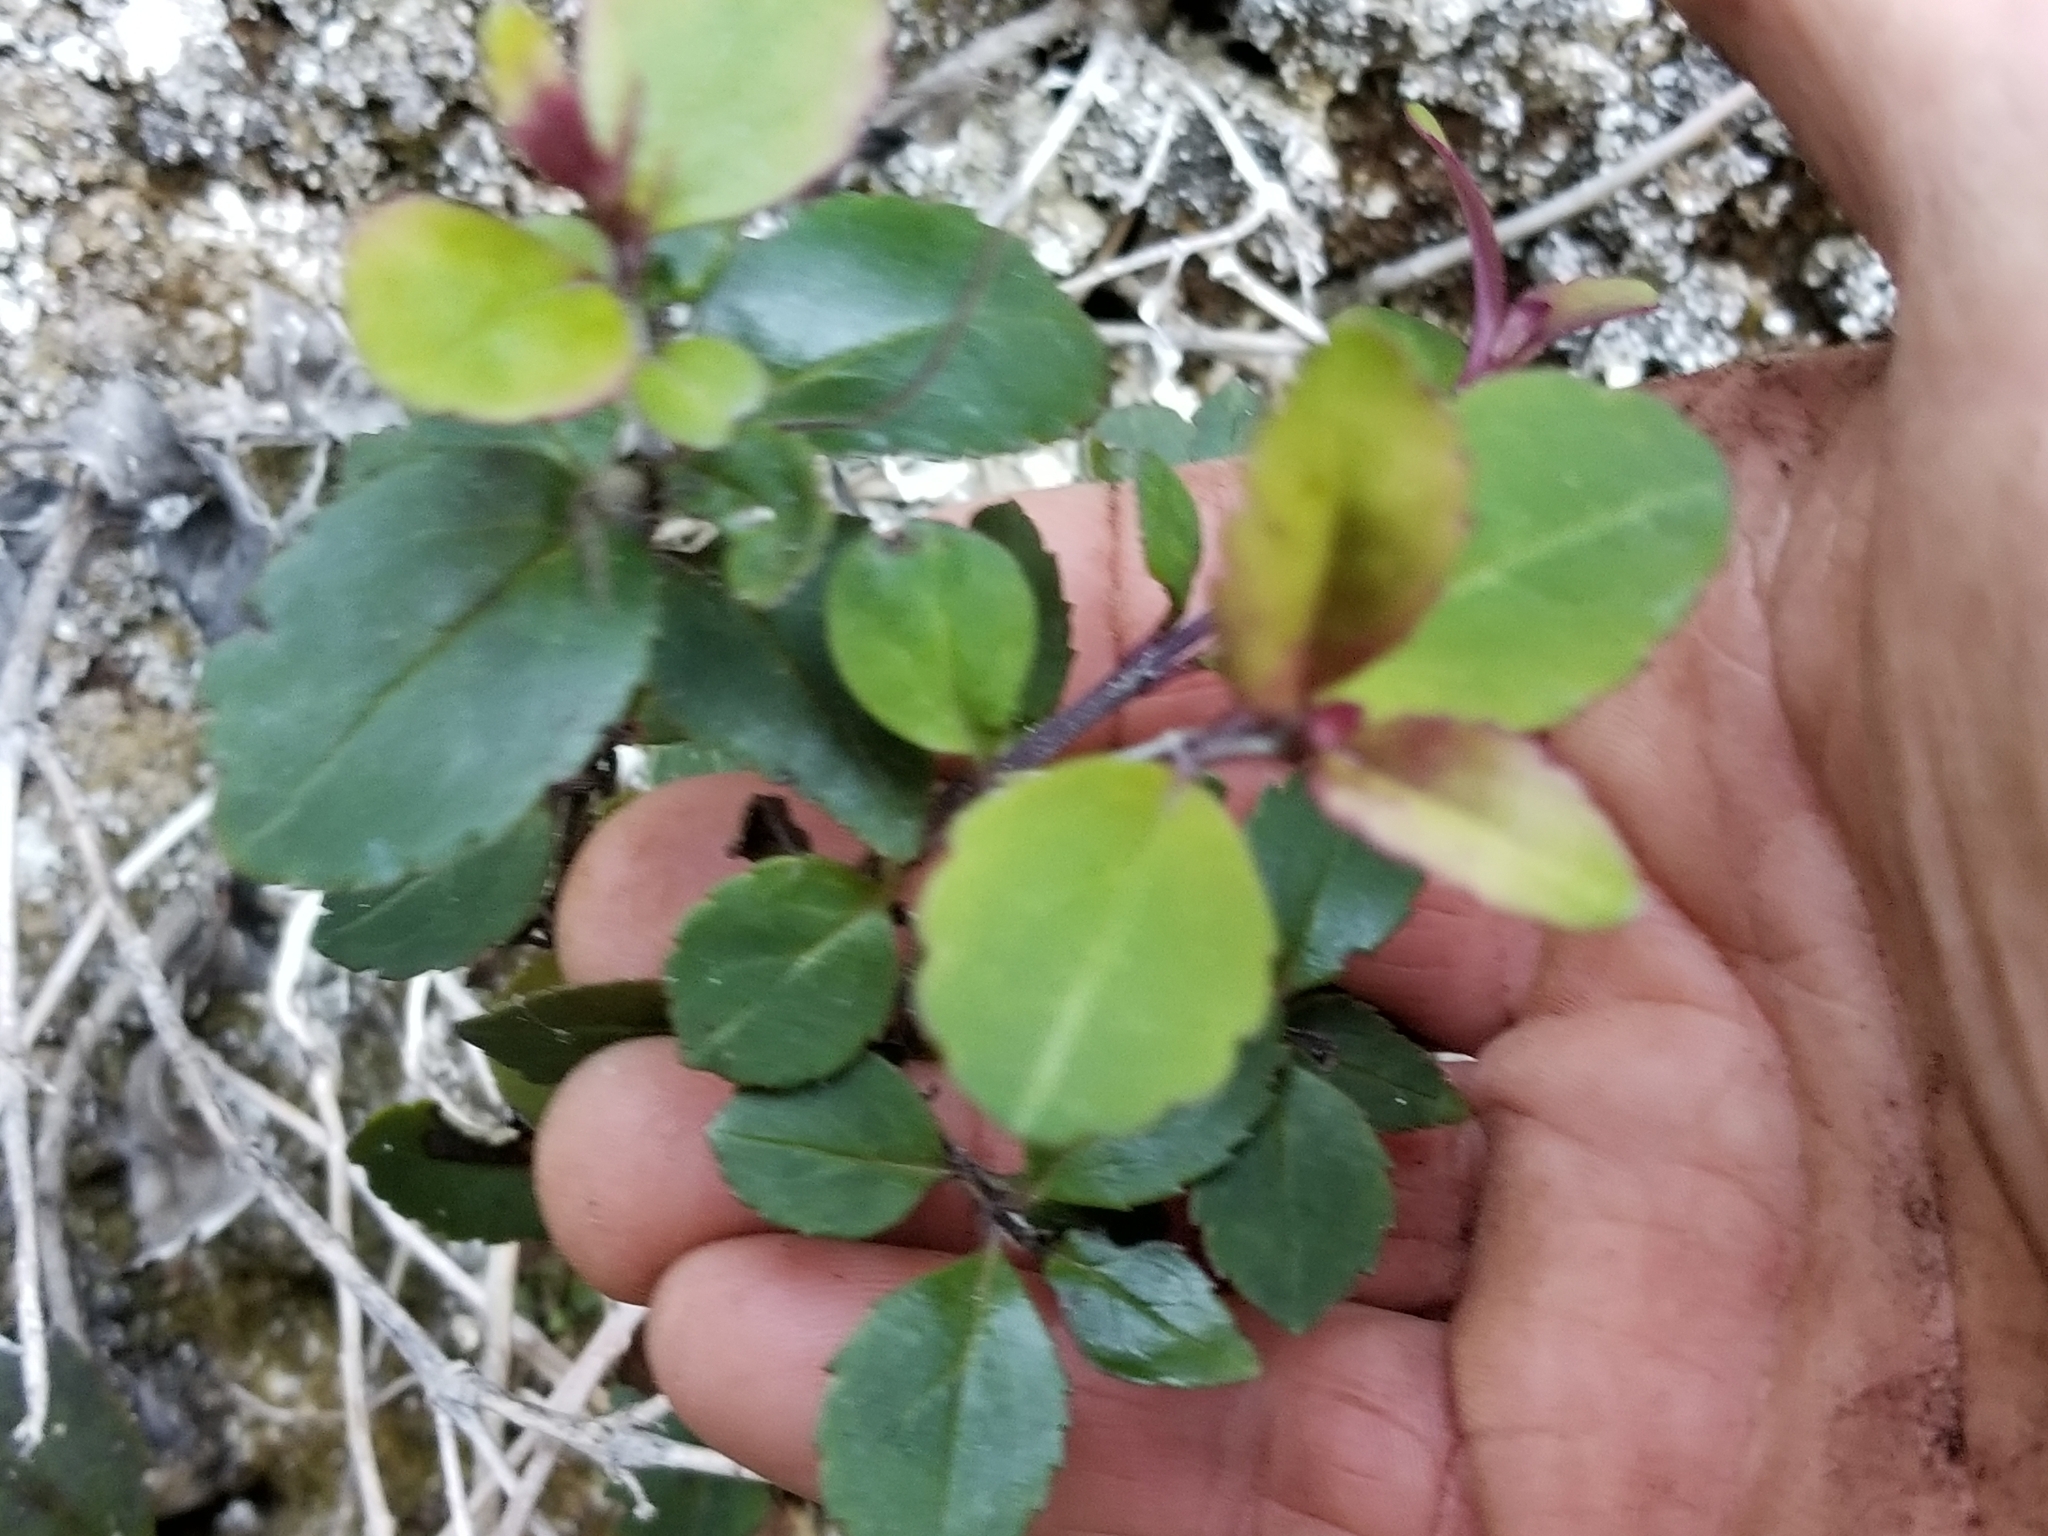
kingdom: Plantae
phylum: Tracheophyta
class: Magnoliopsida
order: Lamiales
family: Plantaginaceae
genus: Veronica
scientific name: Veronica senex
